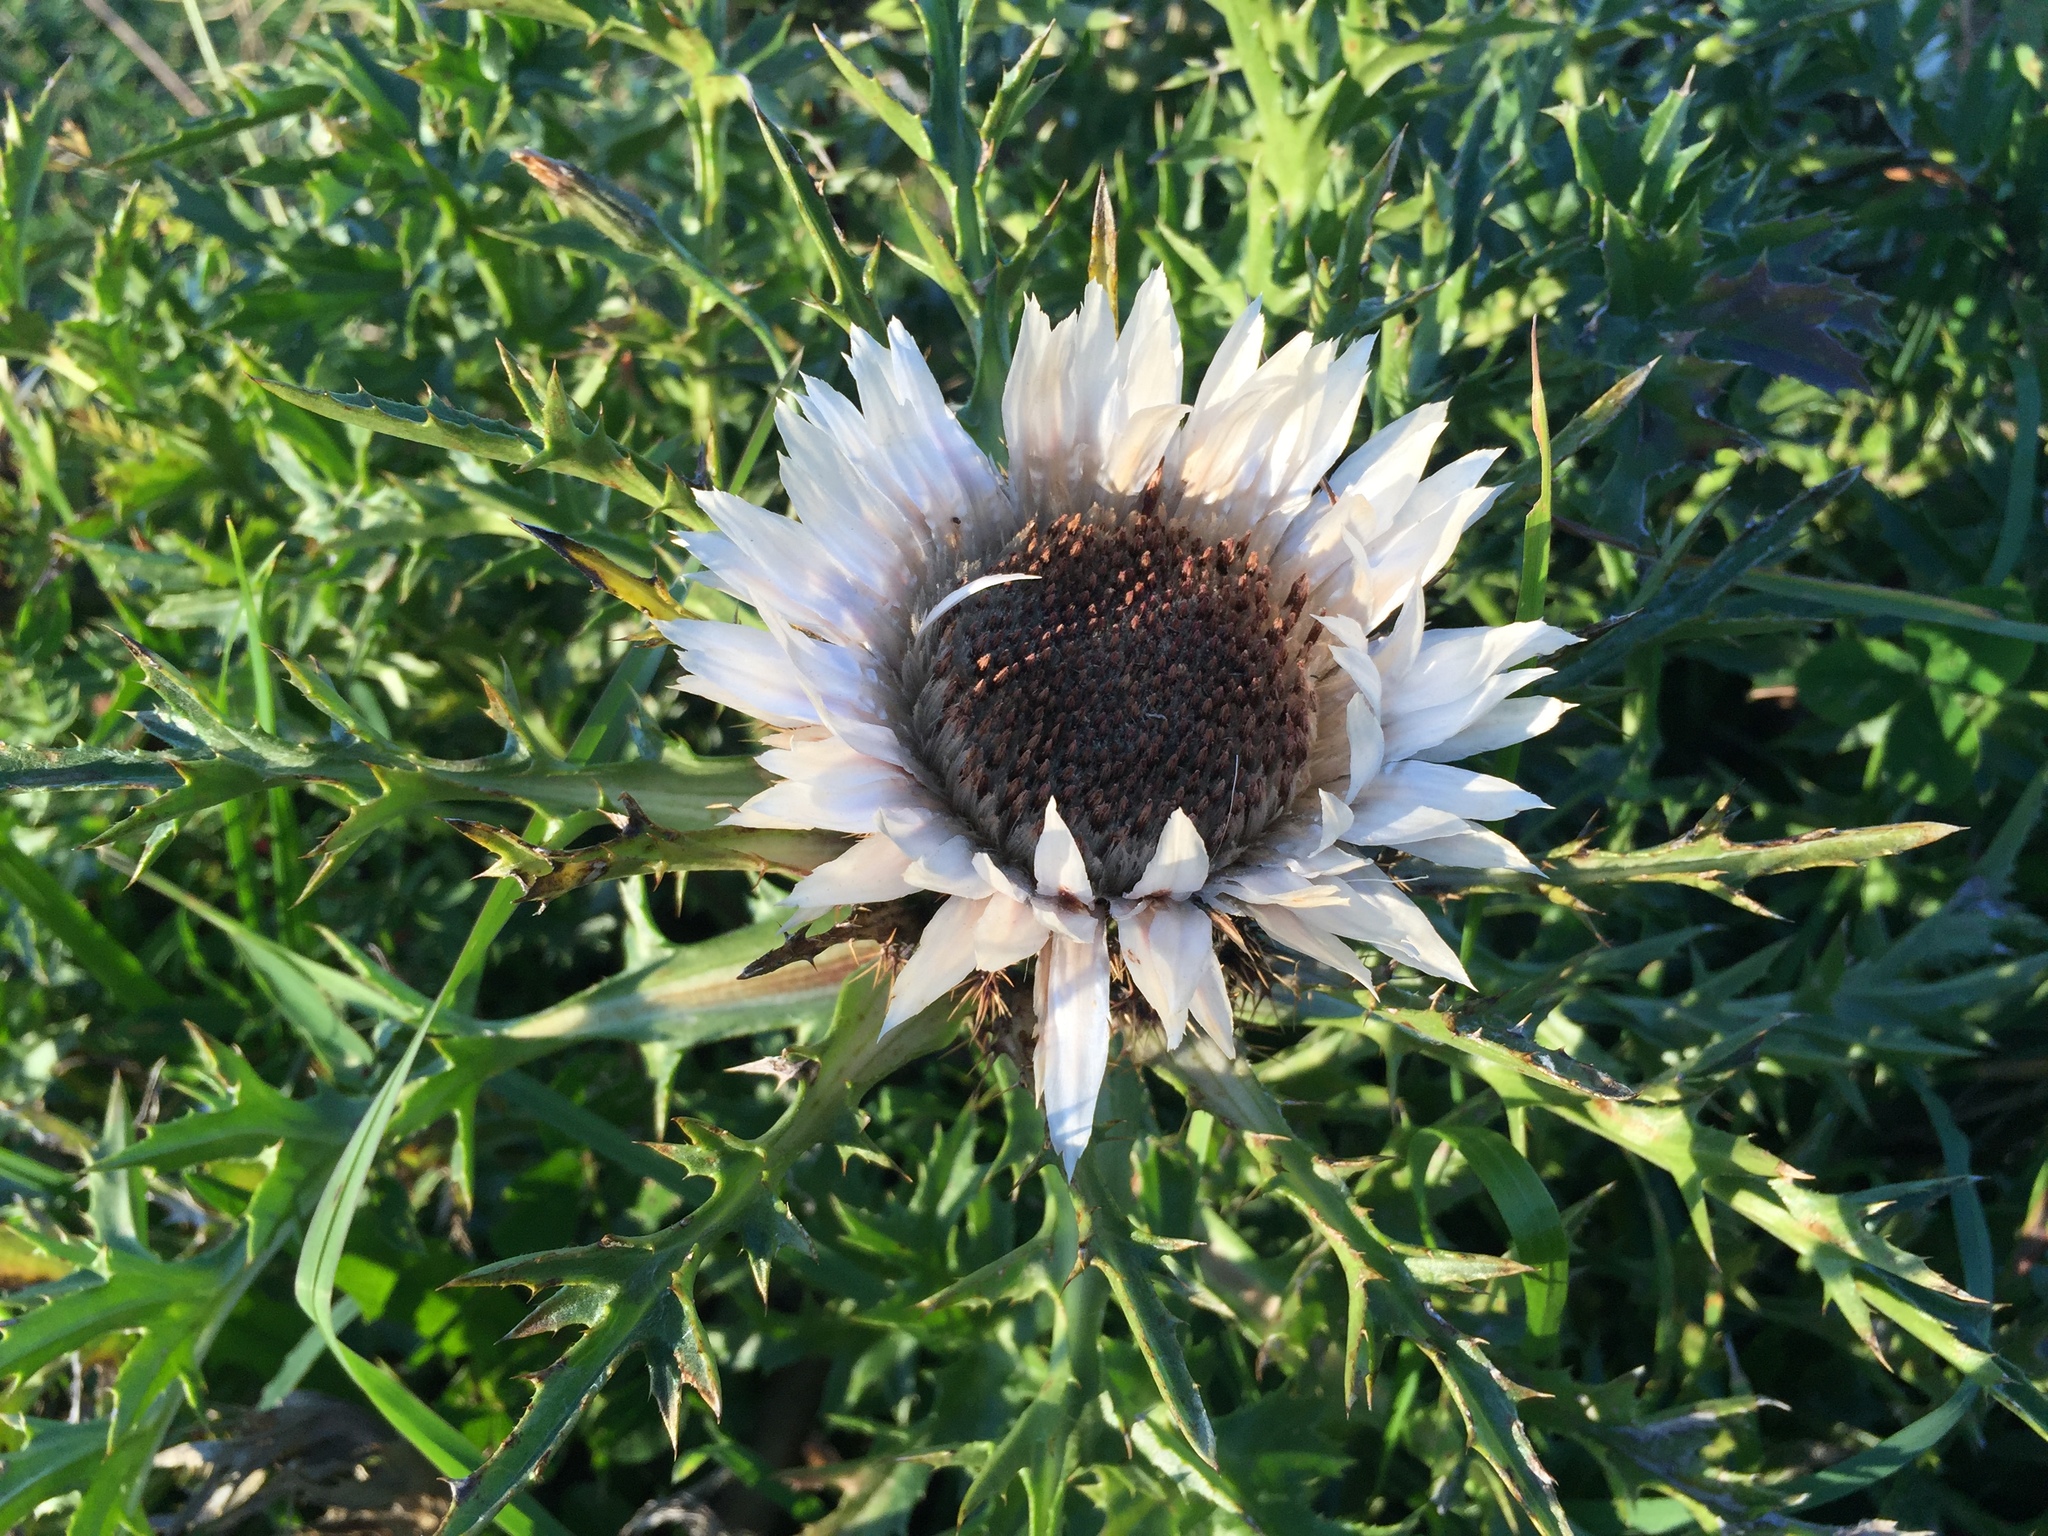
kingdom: Plantae
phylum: Tracheophyta
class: Magnoliopsida
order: Asterales
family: Asteraceae
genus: Carlina
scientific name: Carlina acaulis
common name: Stemless carline thistle
